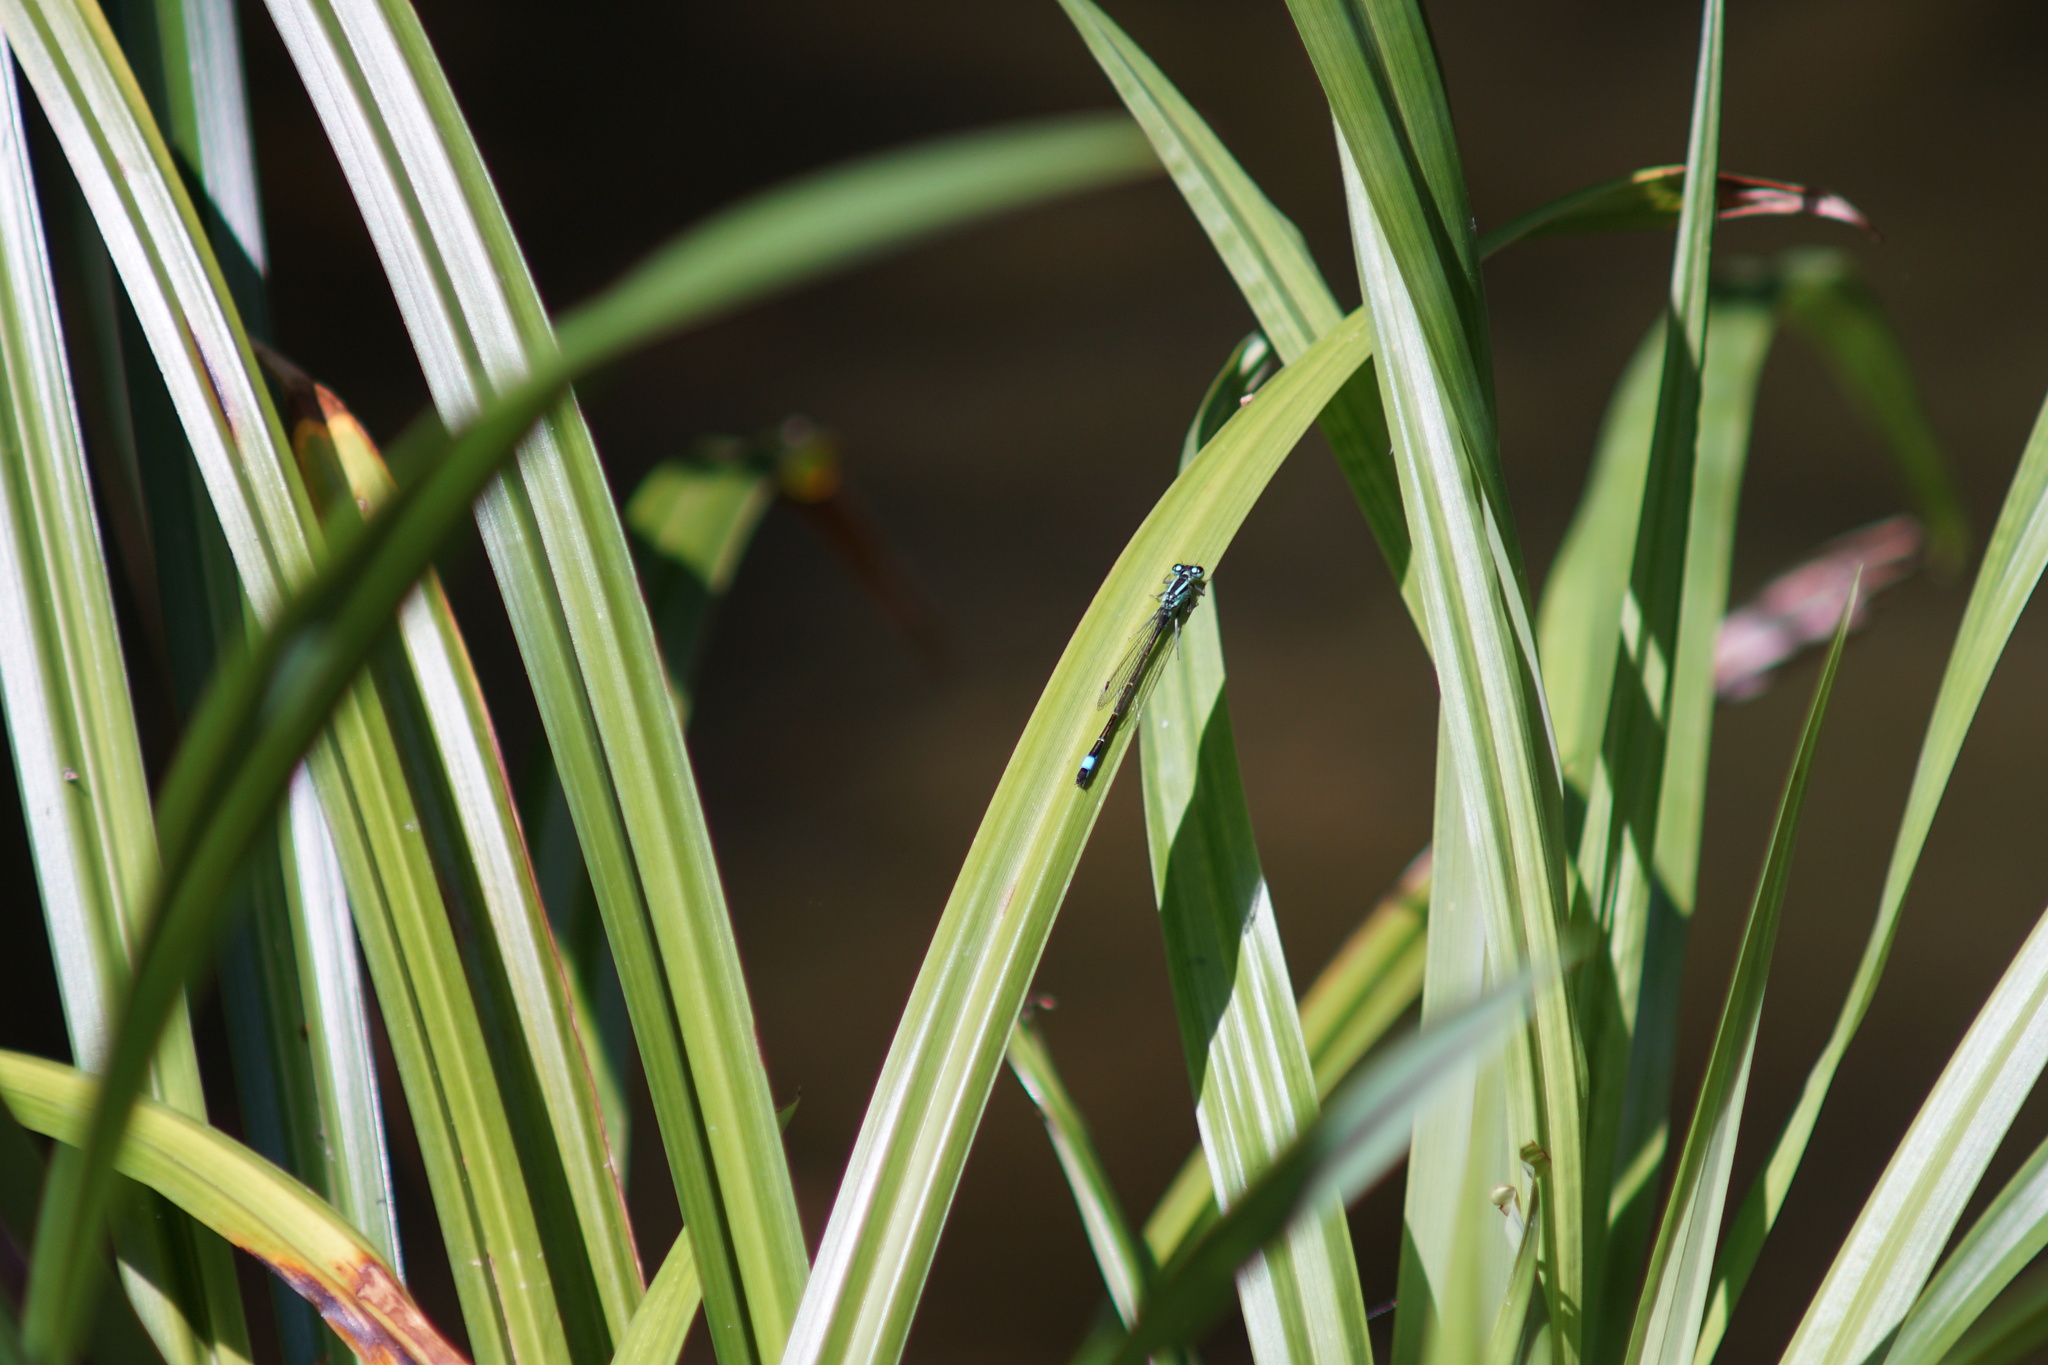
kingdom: Animalia
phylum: Arthropoda
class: Insecta
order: Odonata
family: Coenagrionidae
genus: Ischnura
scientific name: Ischnura elegans
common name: Blue-tailed damselfly
